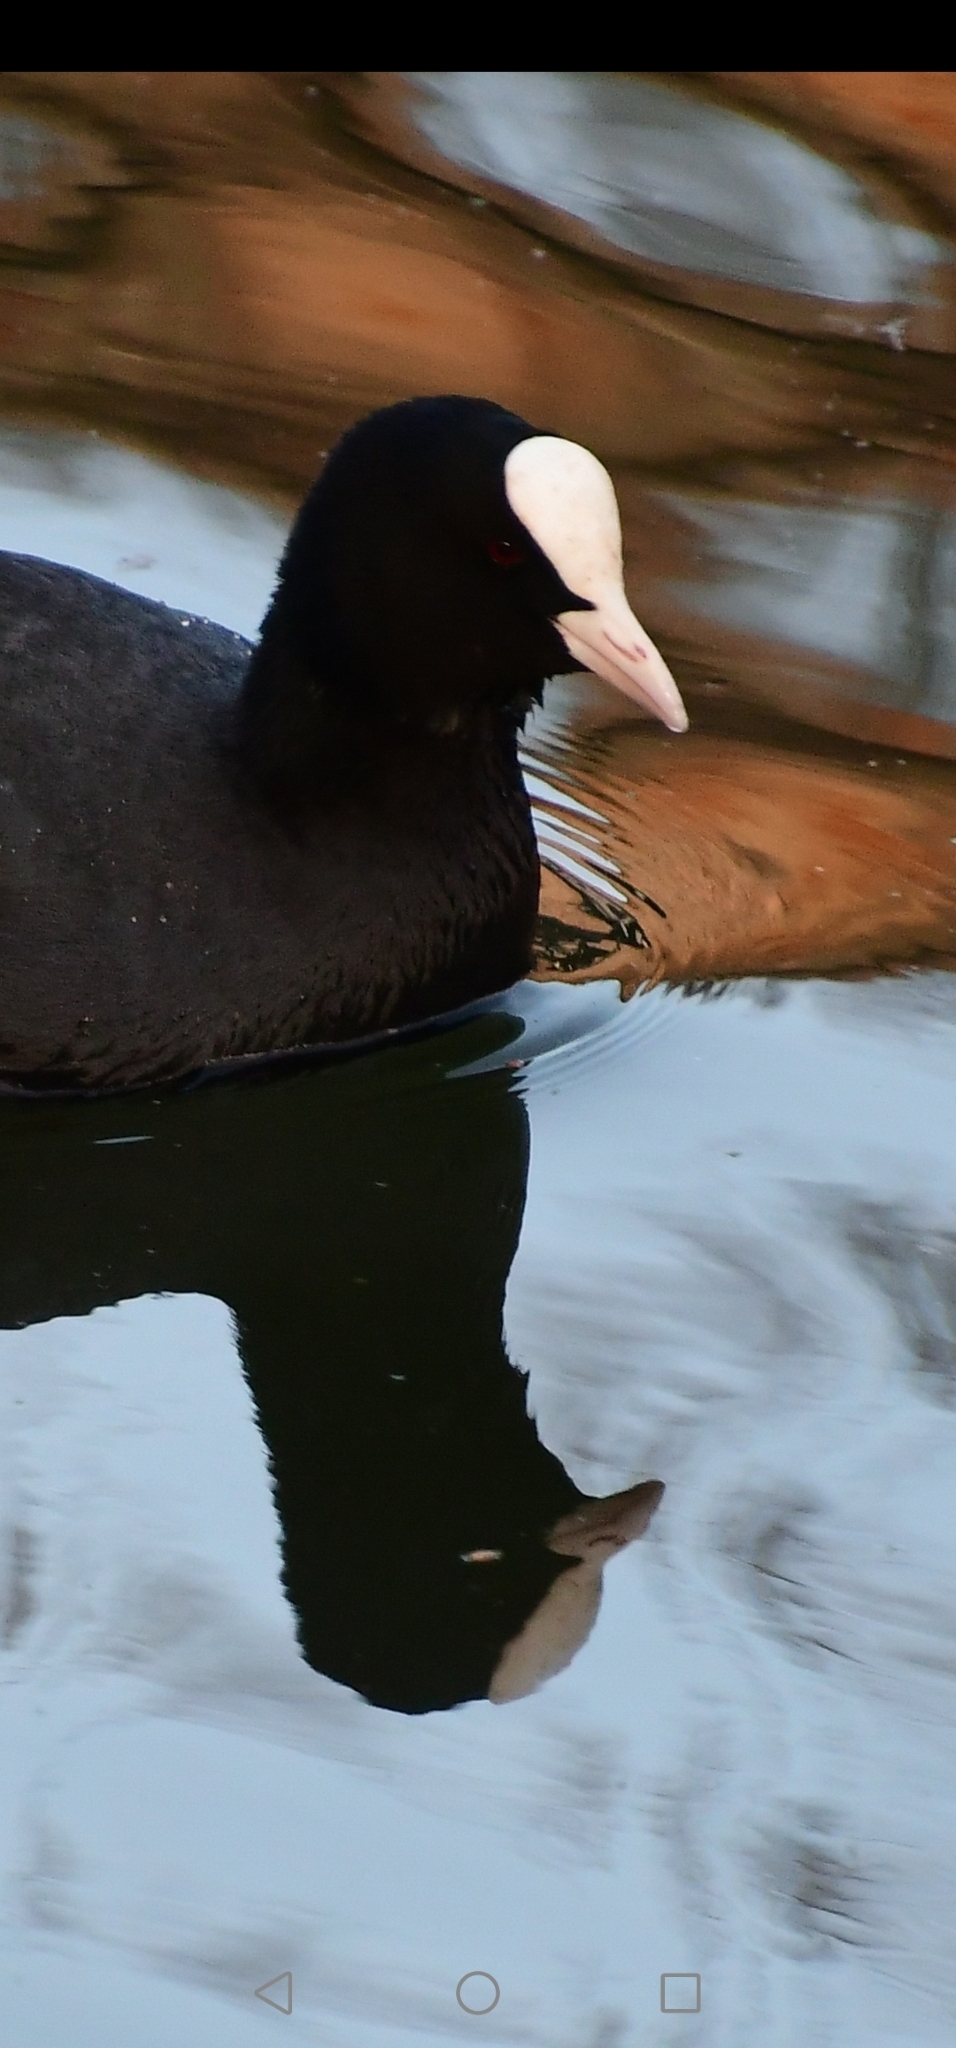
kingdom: Animalia
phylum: Chordata
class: Aves
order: Gruiformes
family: Rallidae
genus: Fulica
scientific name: Fulica atra
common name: Eurasian coot
